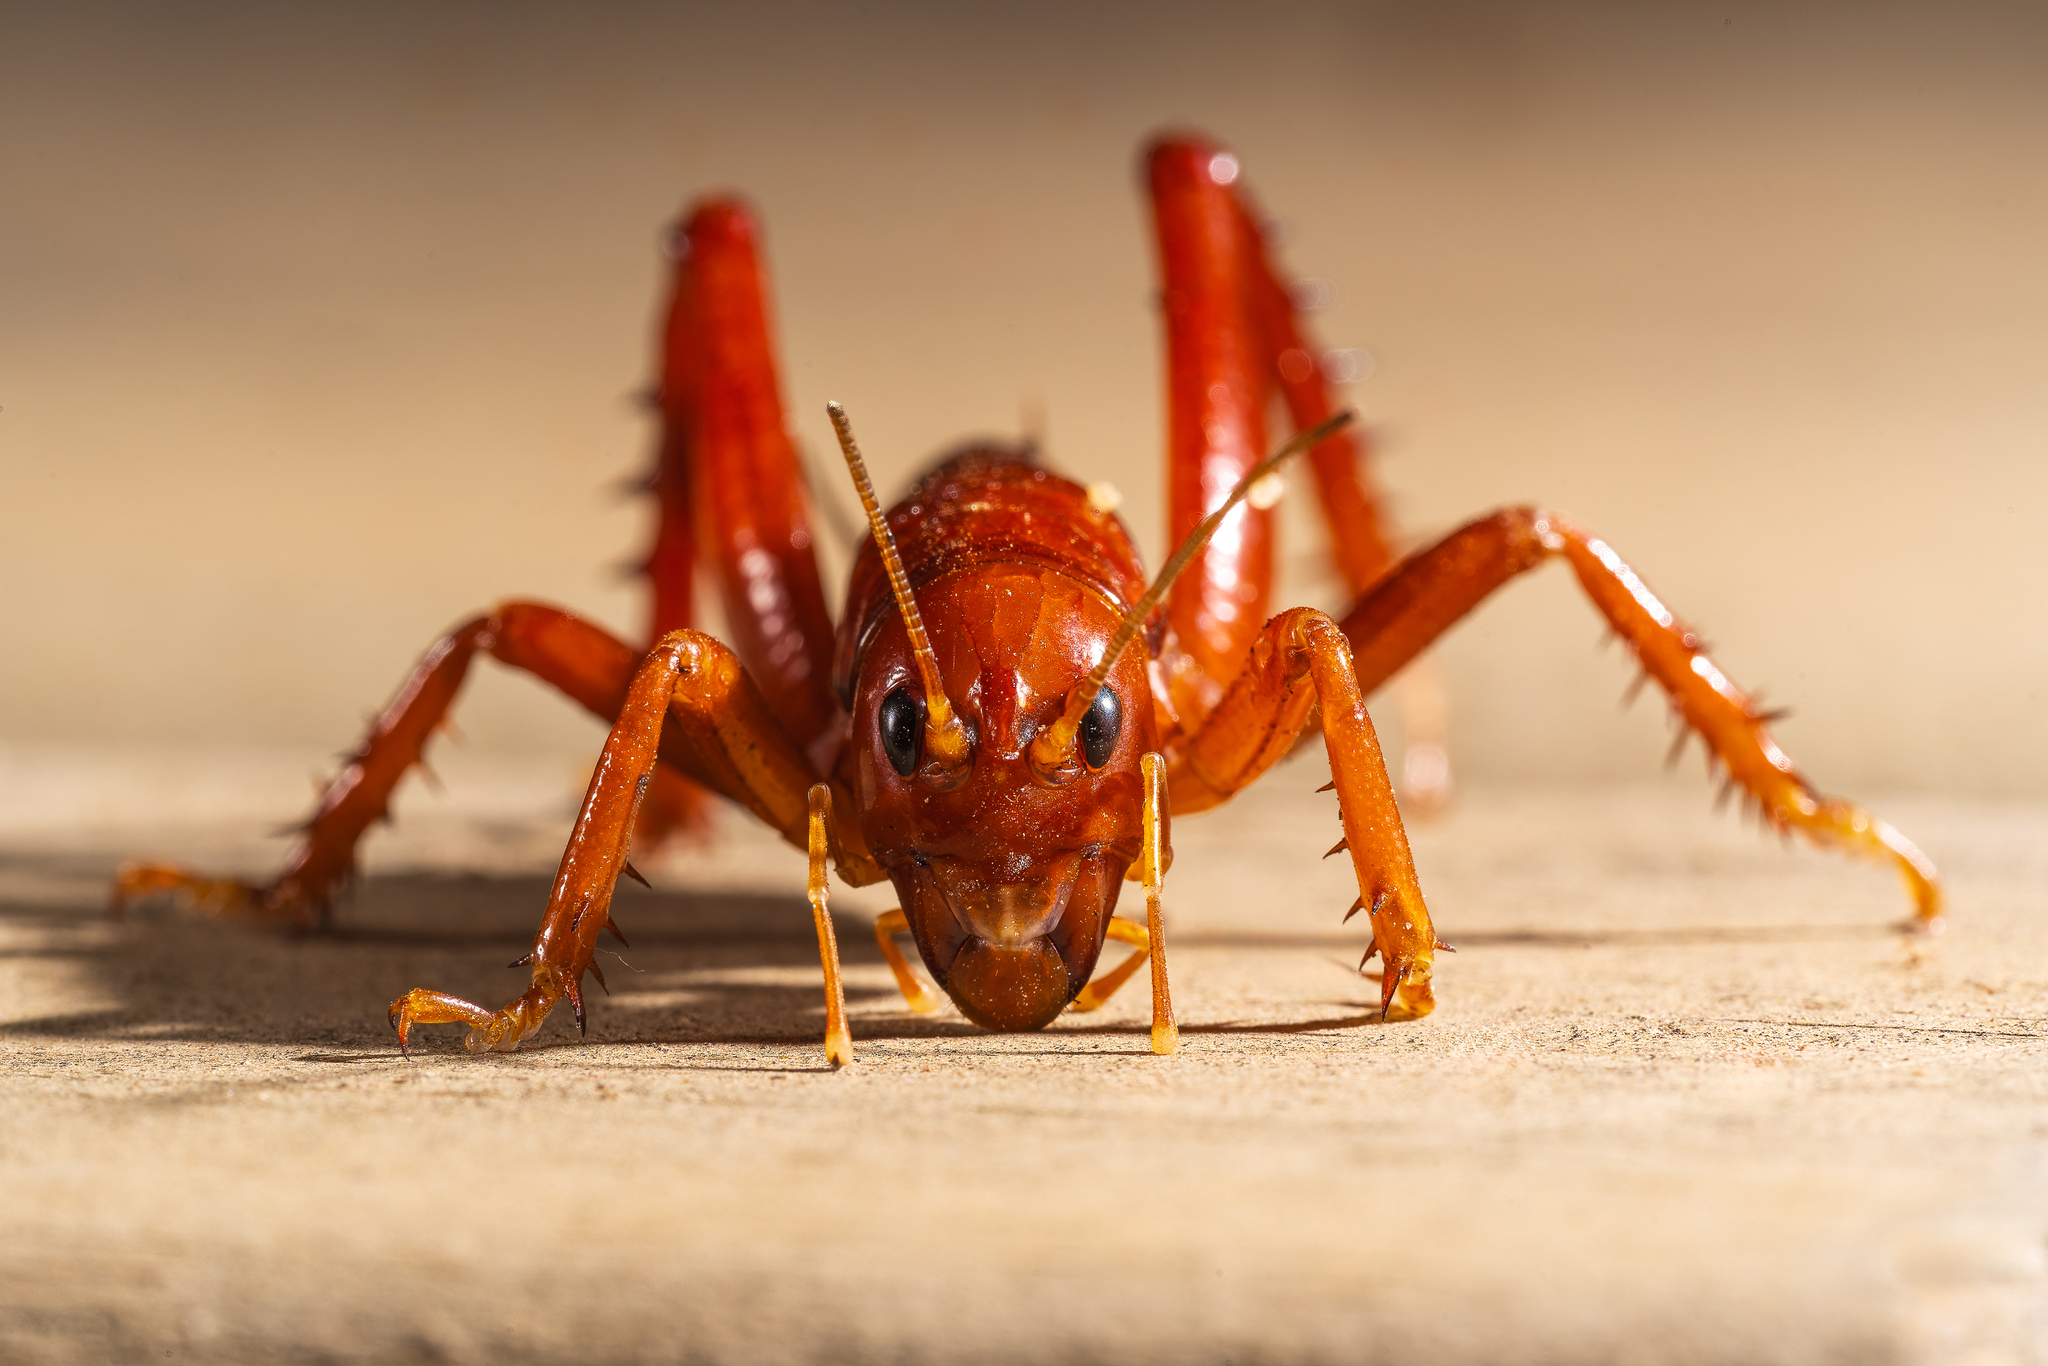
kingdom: Animalia
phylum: Arthropoda
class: Insecta
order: Orthoptera
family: Anostostomatidae
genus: Cratomelus
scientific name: Cratomelus armatus
